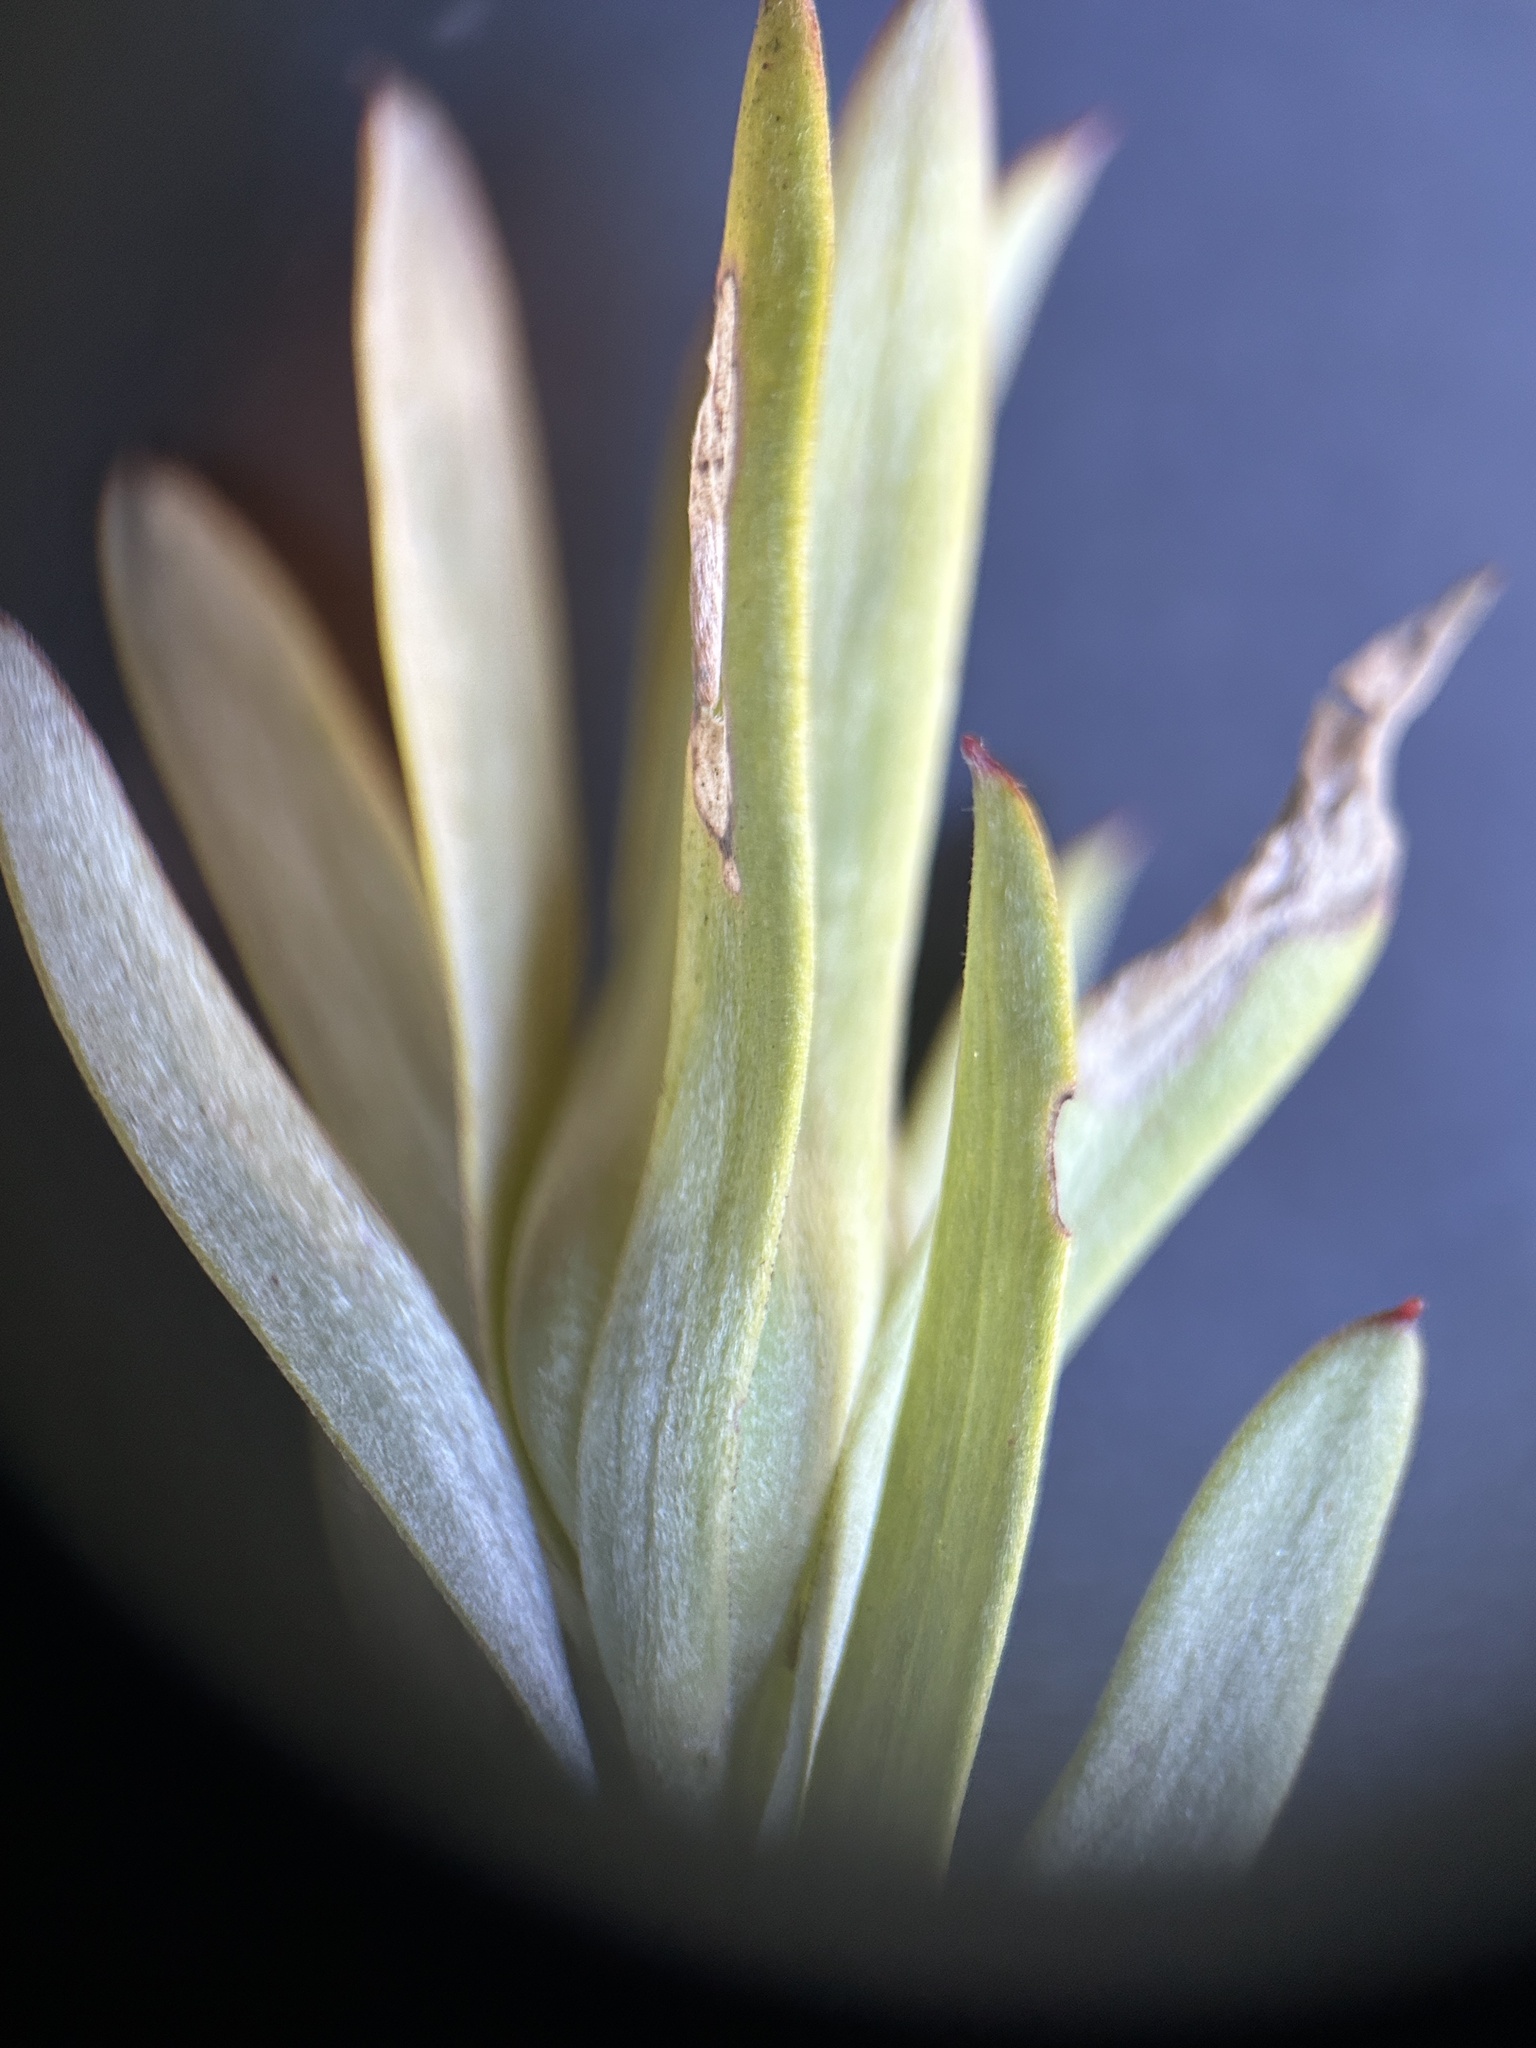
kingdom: Plantae
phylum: Tracheophyta
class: Magnoliopsida
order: Proteales
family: Proteaceae
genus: Leucadendron
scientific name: Leucadendron meridianum
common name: Limestone conebush
